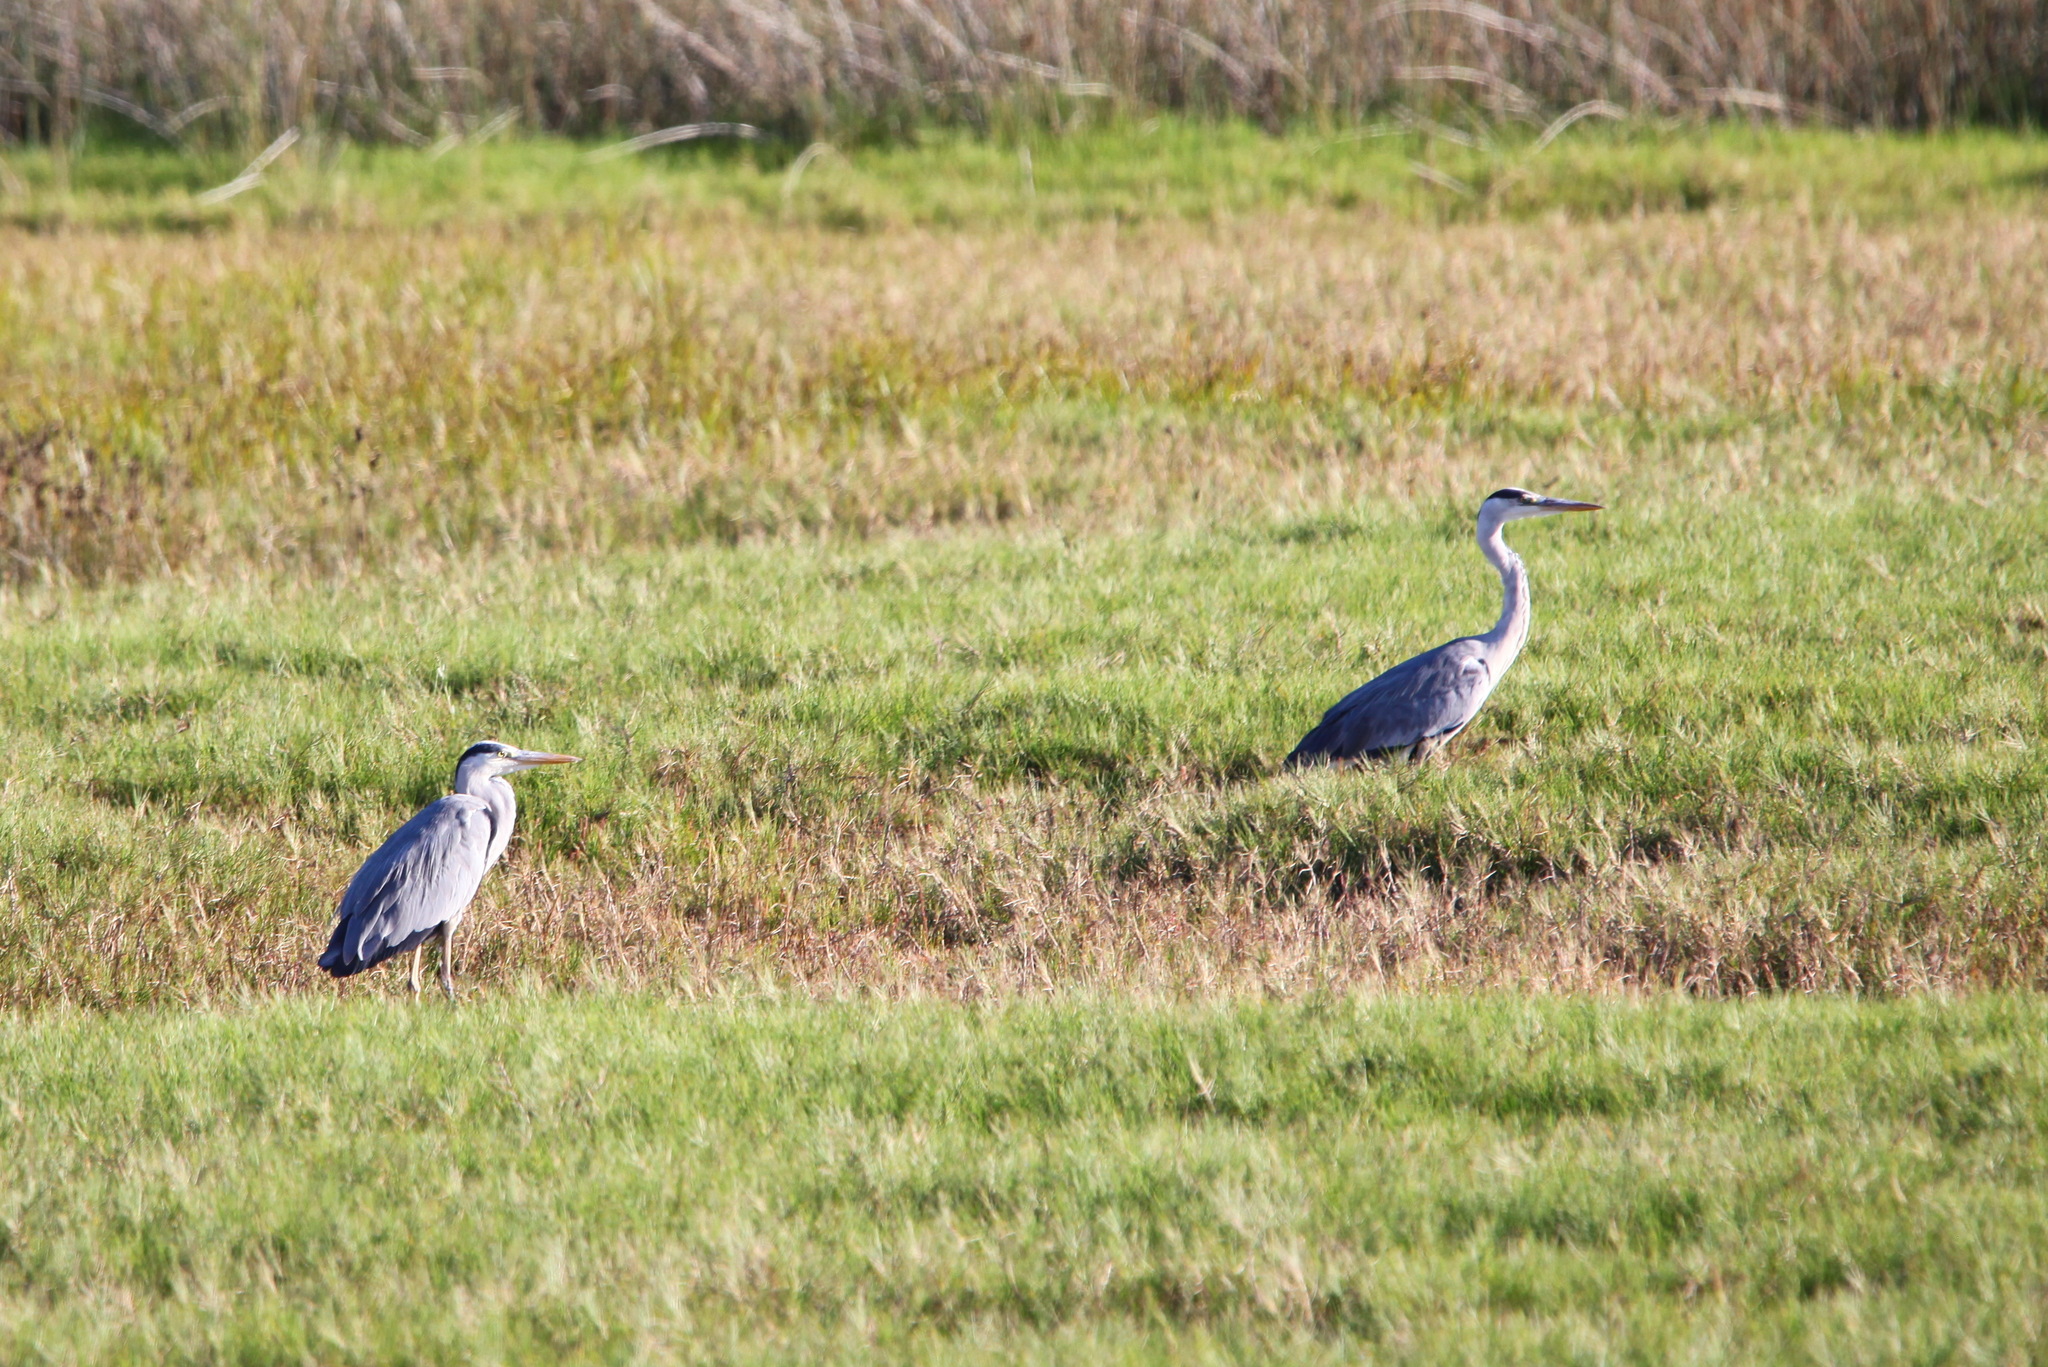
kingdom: Animalia
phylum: Chordata
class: Aves
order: Pelecaniformes
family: Ardeidae
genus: Ardea
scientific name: Ardea cinerea
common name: Grey heron
